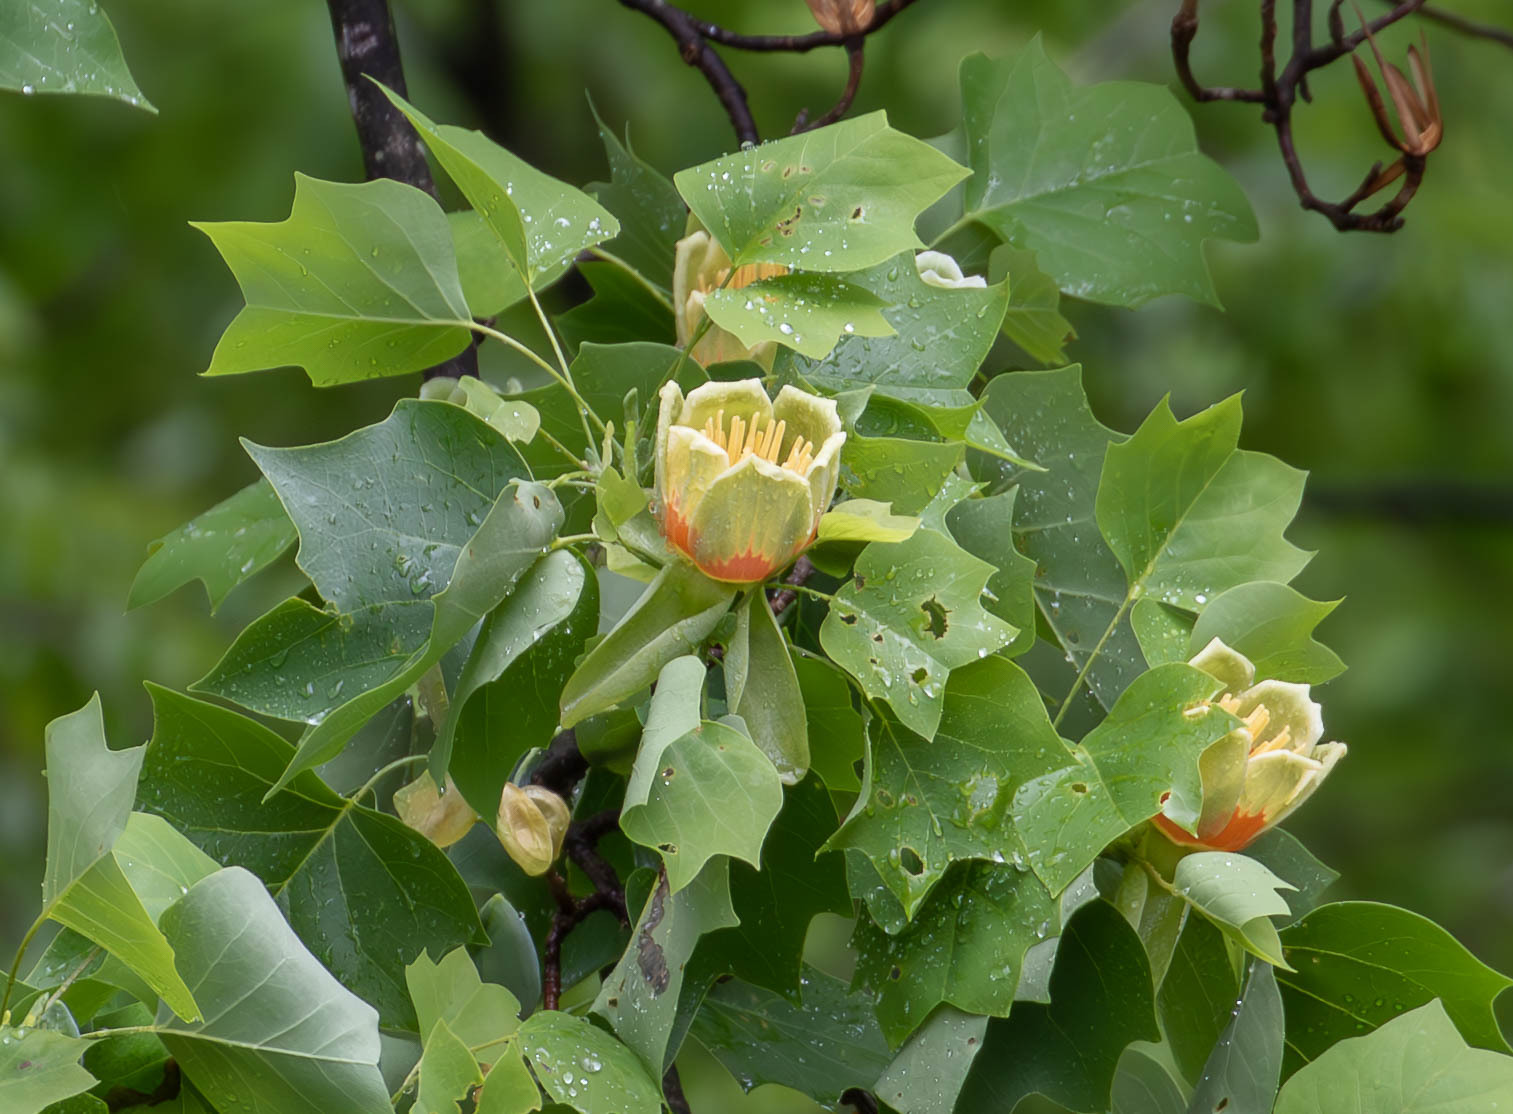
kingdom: Plantae
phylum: Tracheophyta
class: Magnoliopsida
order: Magnoliales
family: Magnoliaceae
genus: Liriodendron
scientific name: Liriodendron tulipifera
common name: Tulip tree
